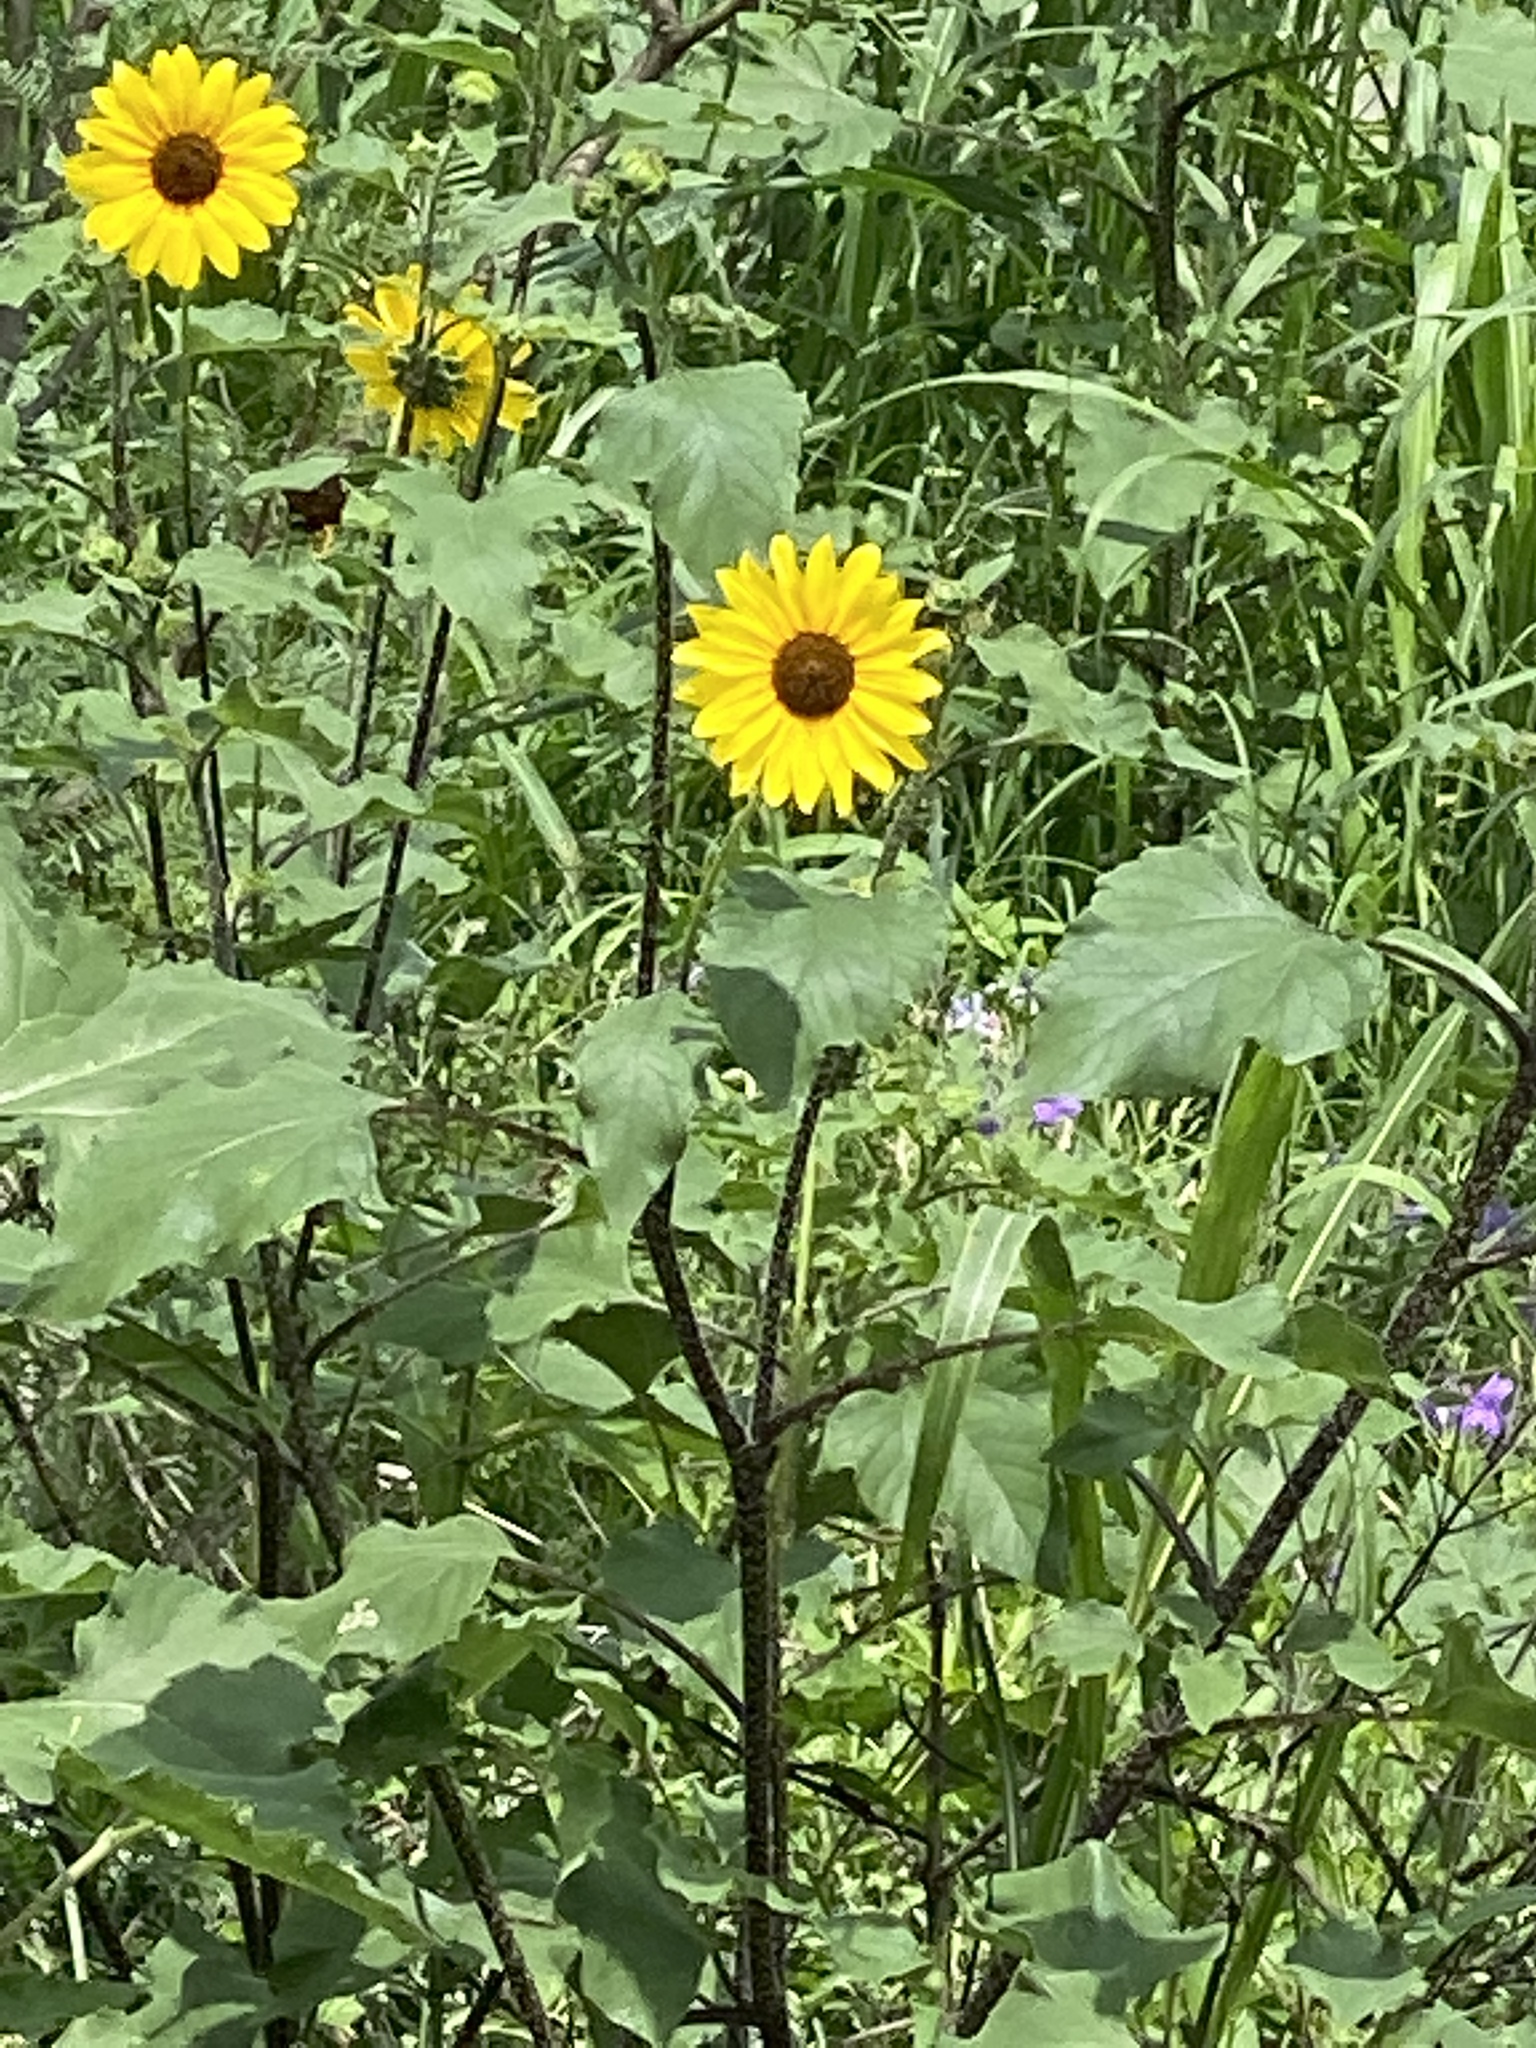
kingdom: Plantae
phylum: Tracheophyta
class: Magnoliopsida
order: Asterales
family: Asteraceae
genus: Helianthus
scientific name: Helianthus annuus
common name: Sunflower
